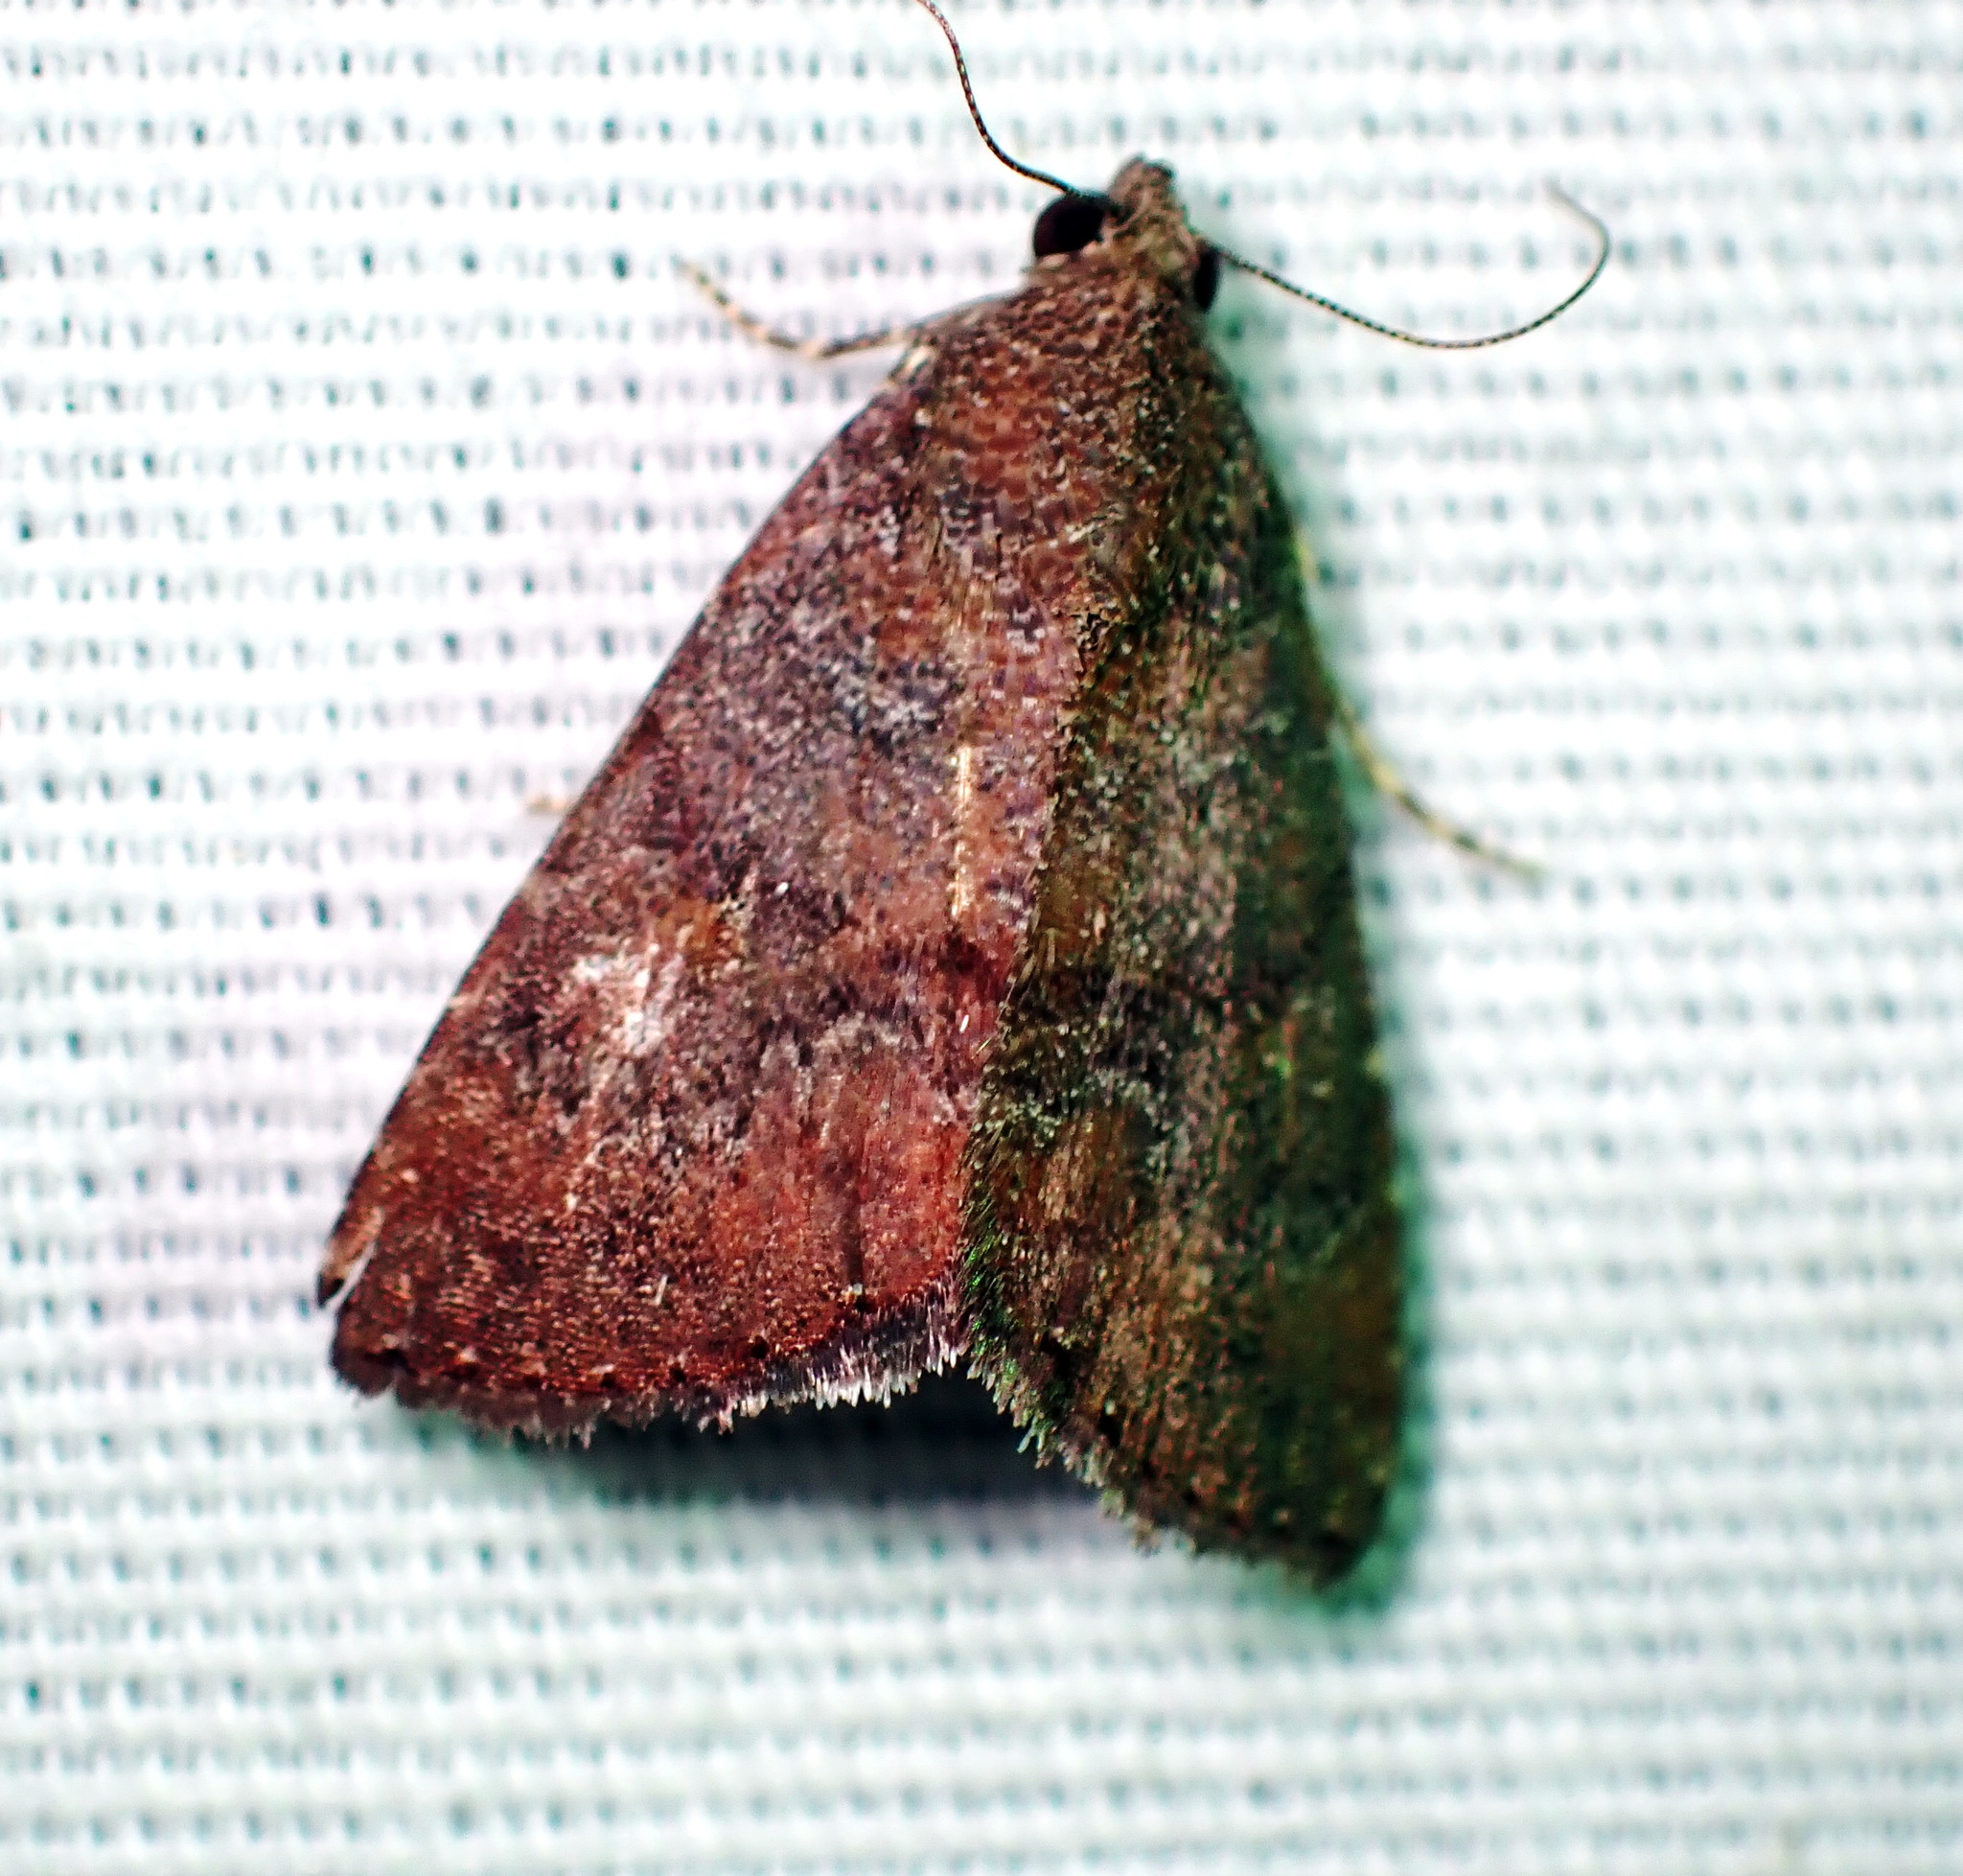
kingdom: Animalia
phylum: Arthropoda
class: Insecta
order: Lepidoptera
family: Noctuidae
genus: Amyna
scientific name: Amyna stricta
